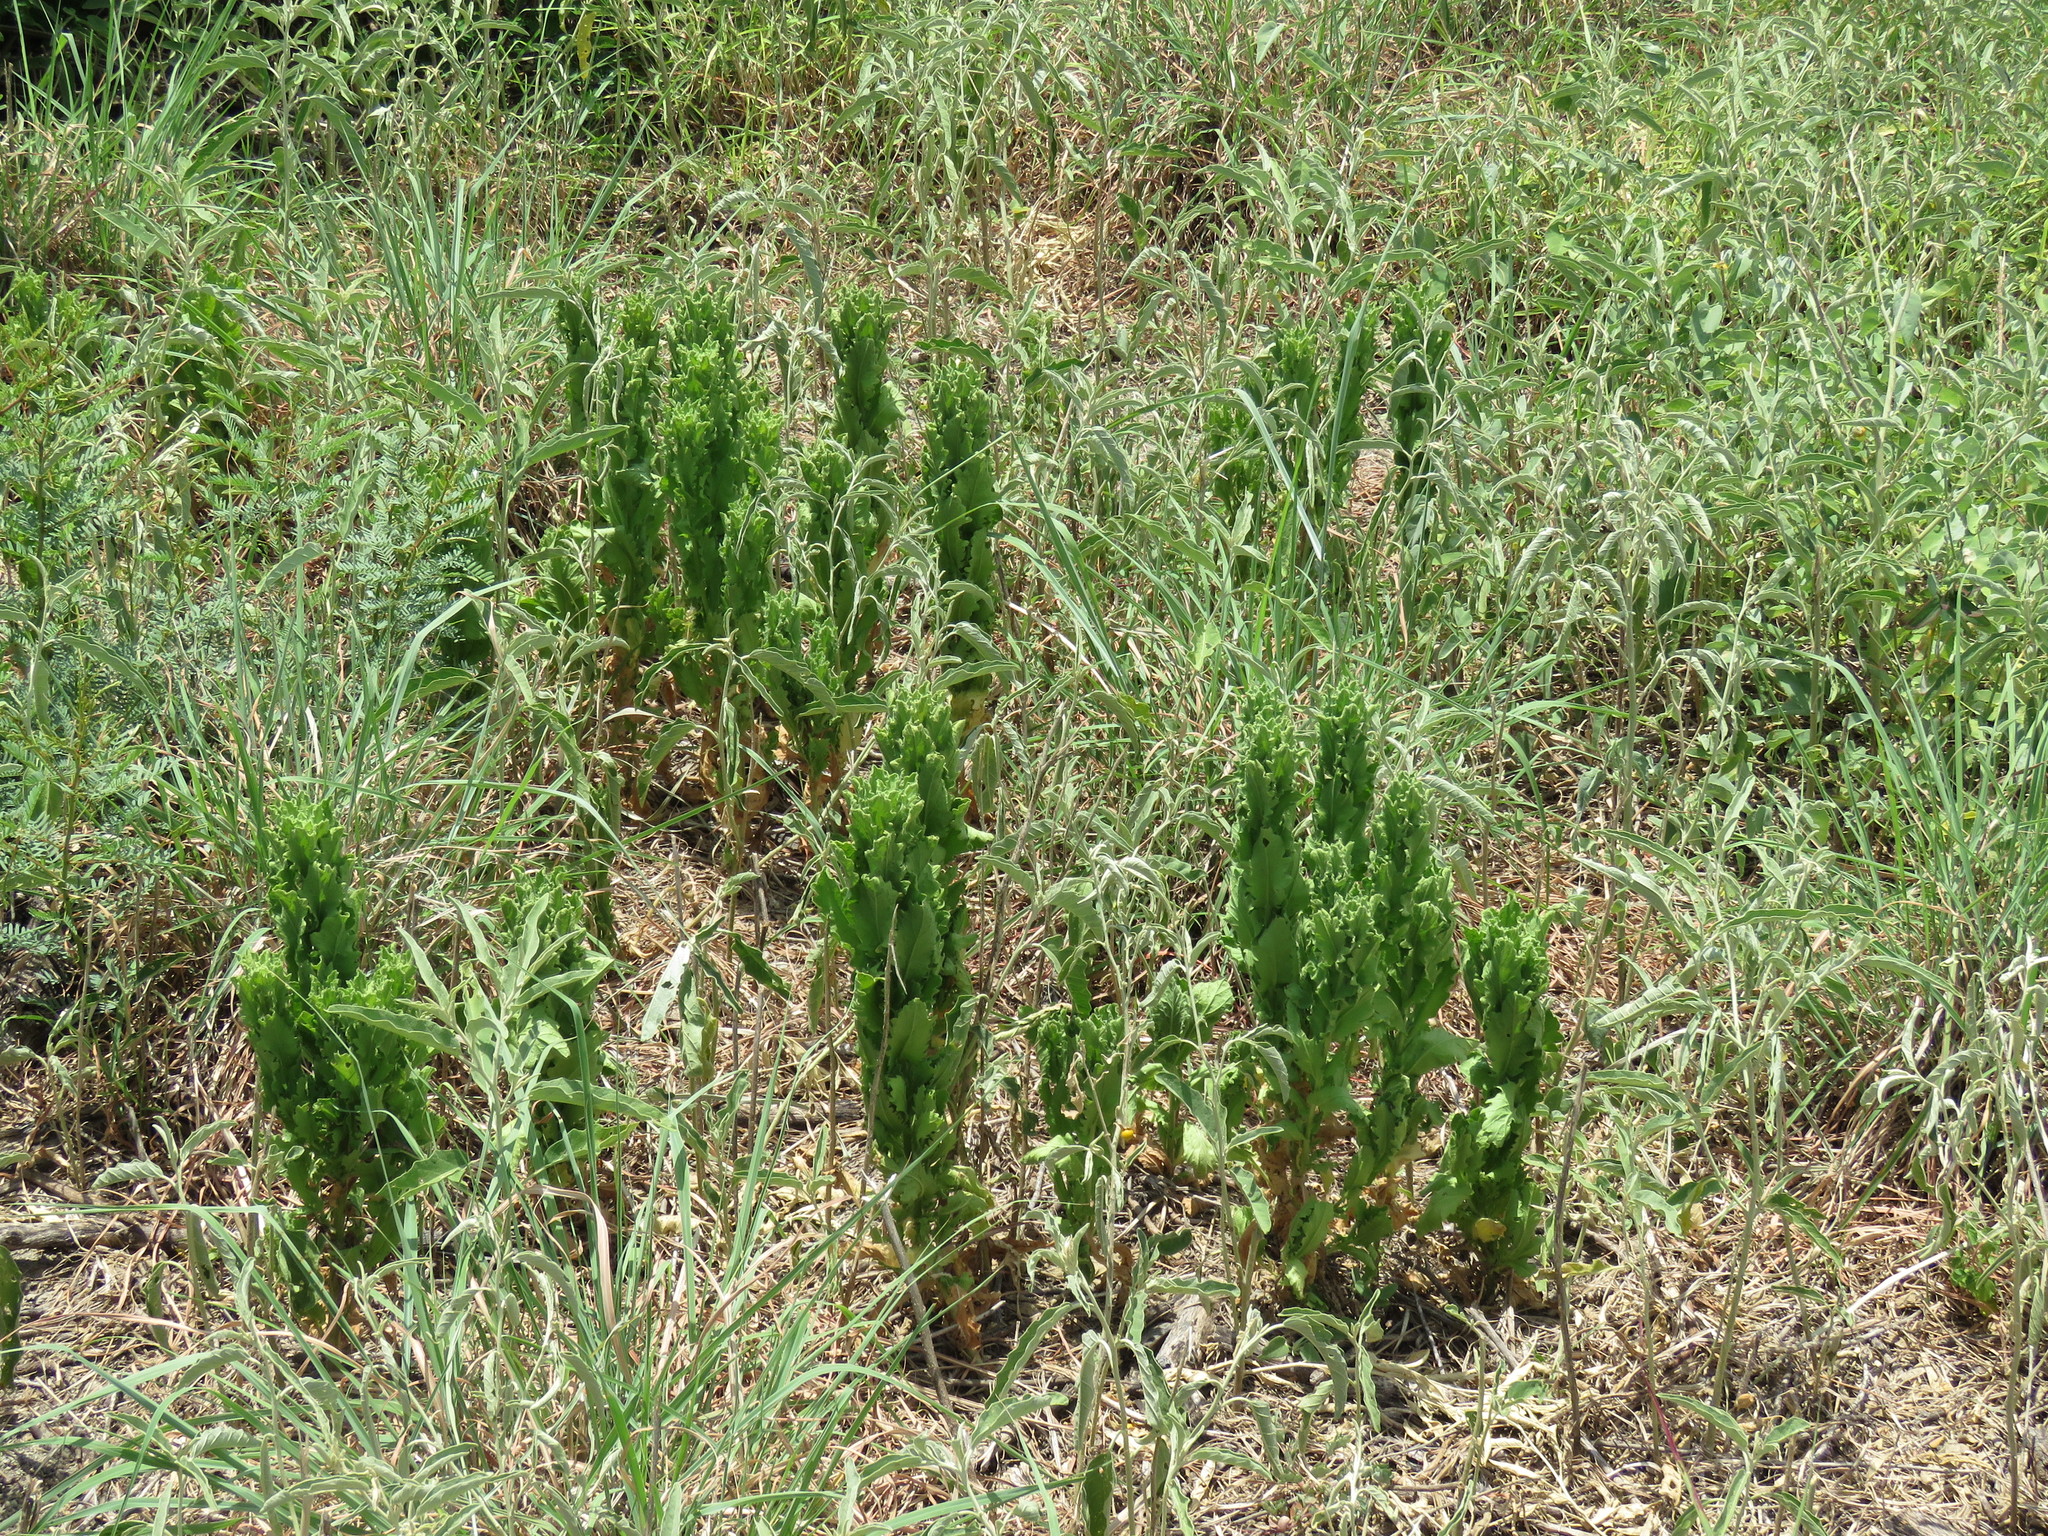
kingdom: Plantae
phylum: Tracheophyta
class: Magnoliopsida
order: Asterales
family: Asteraceae
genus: Laennecia
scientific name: Laennecia coulteri
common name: Coulter's woolwort
